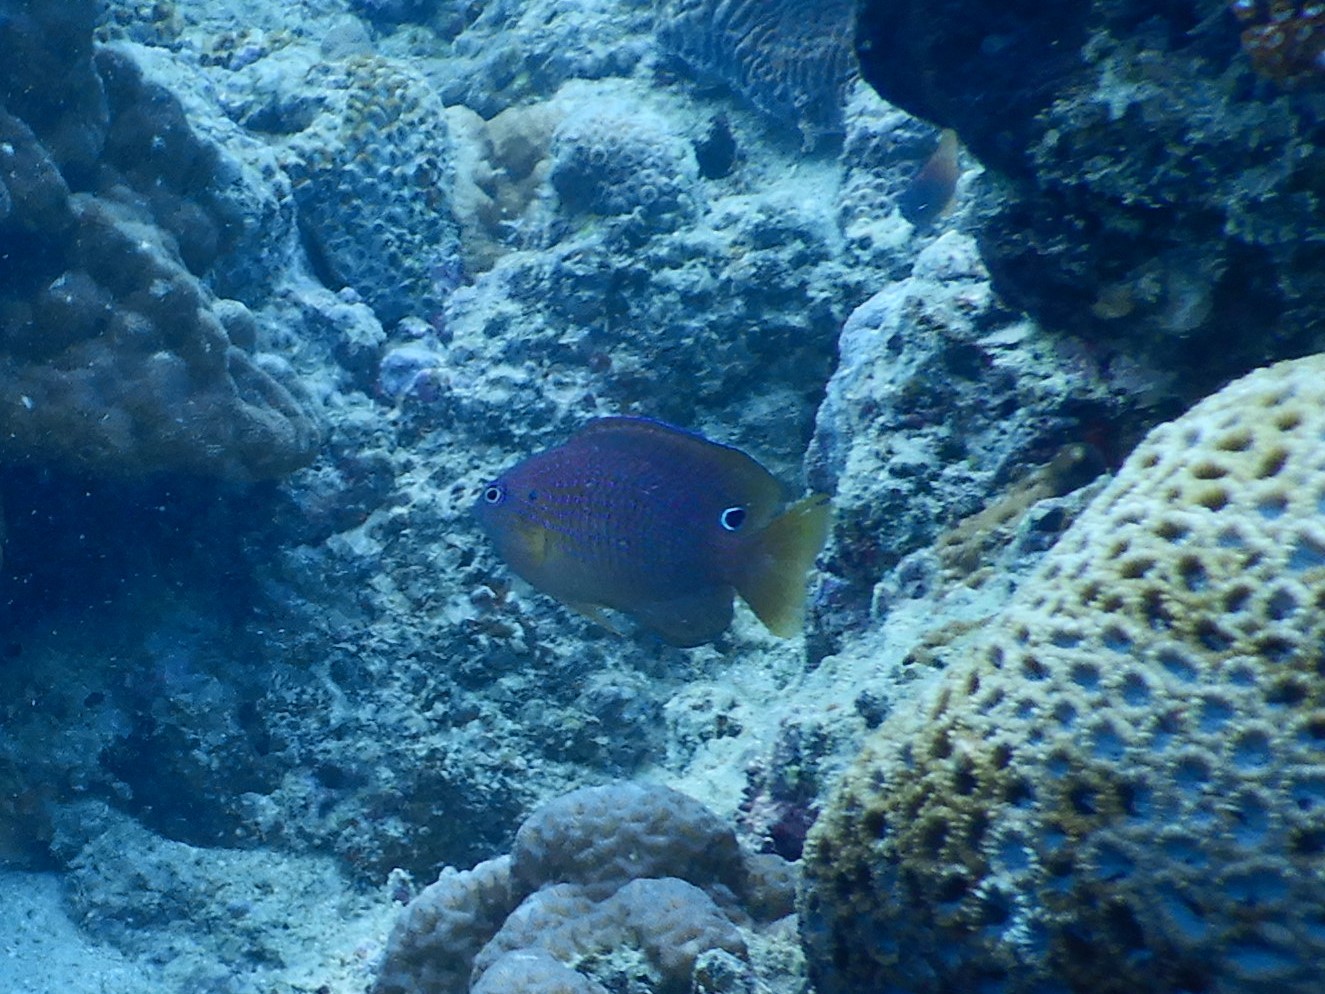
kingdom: Animalia
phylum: Chordata
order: Perciformes
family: Pomacentridae
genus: Pomacentrus
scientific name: Pomacentrus vaiuli
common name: Princess damsel
